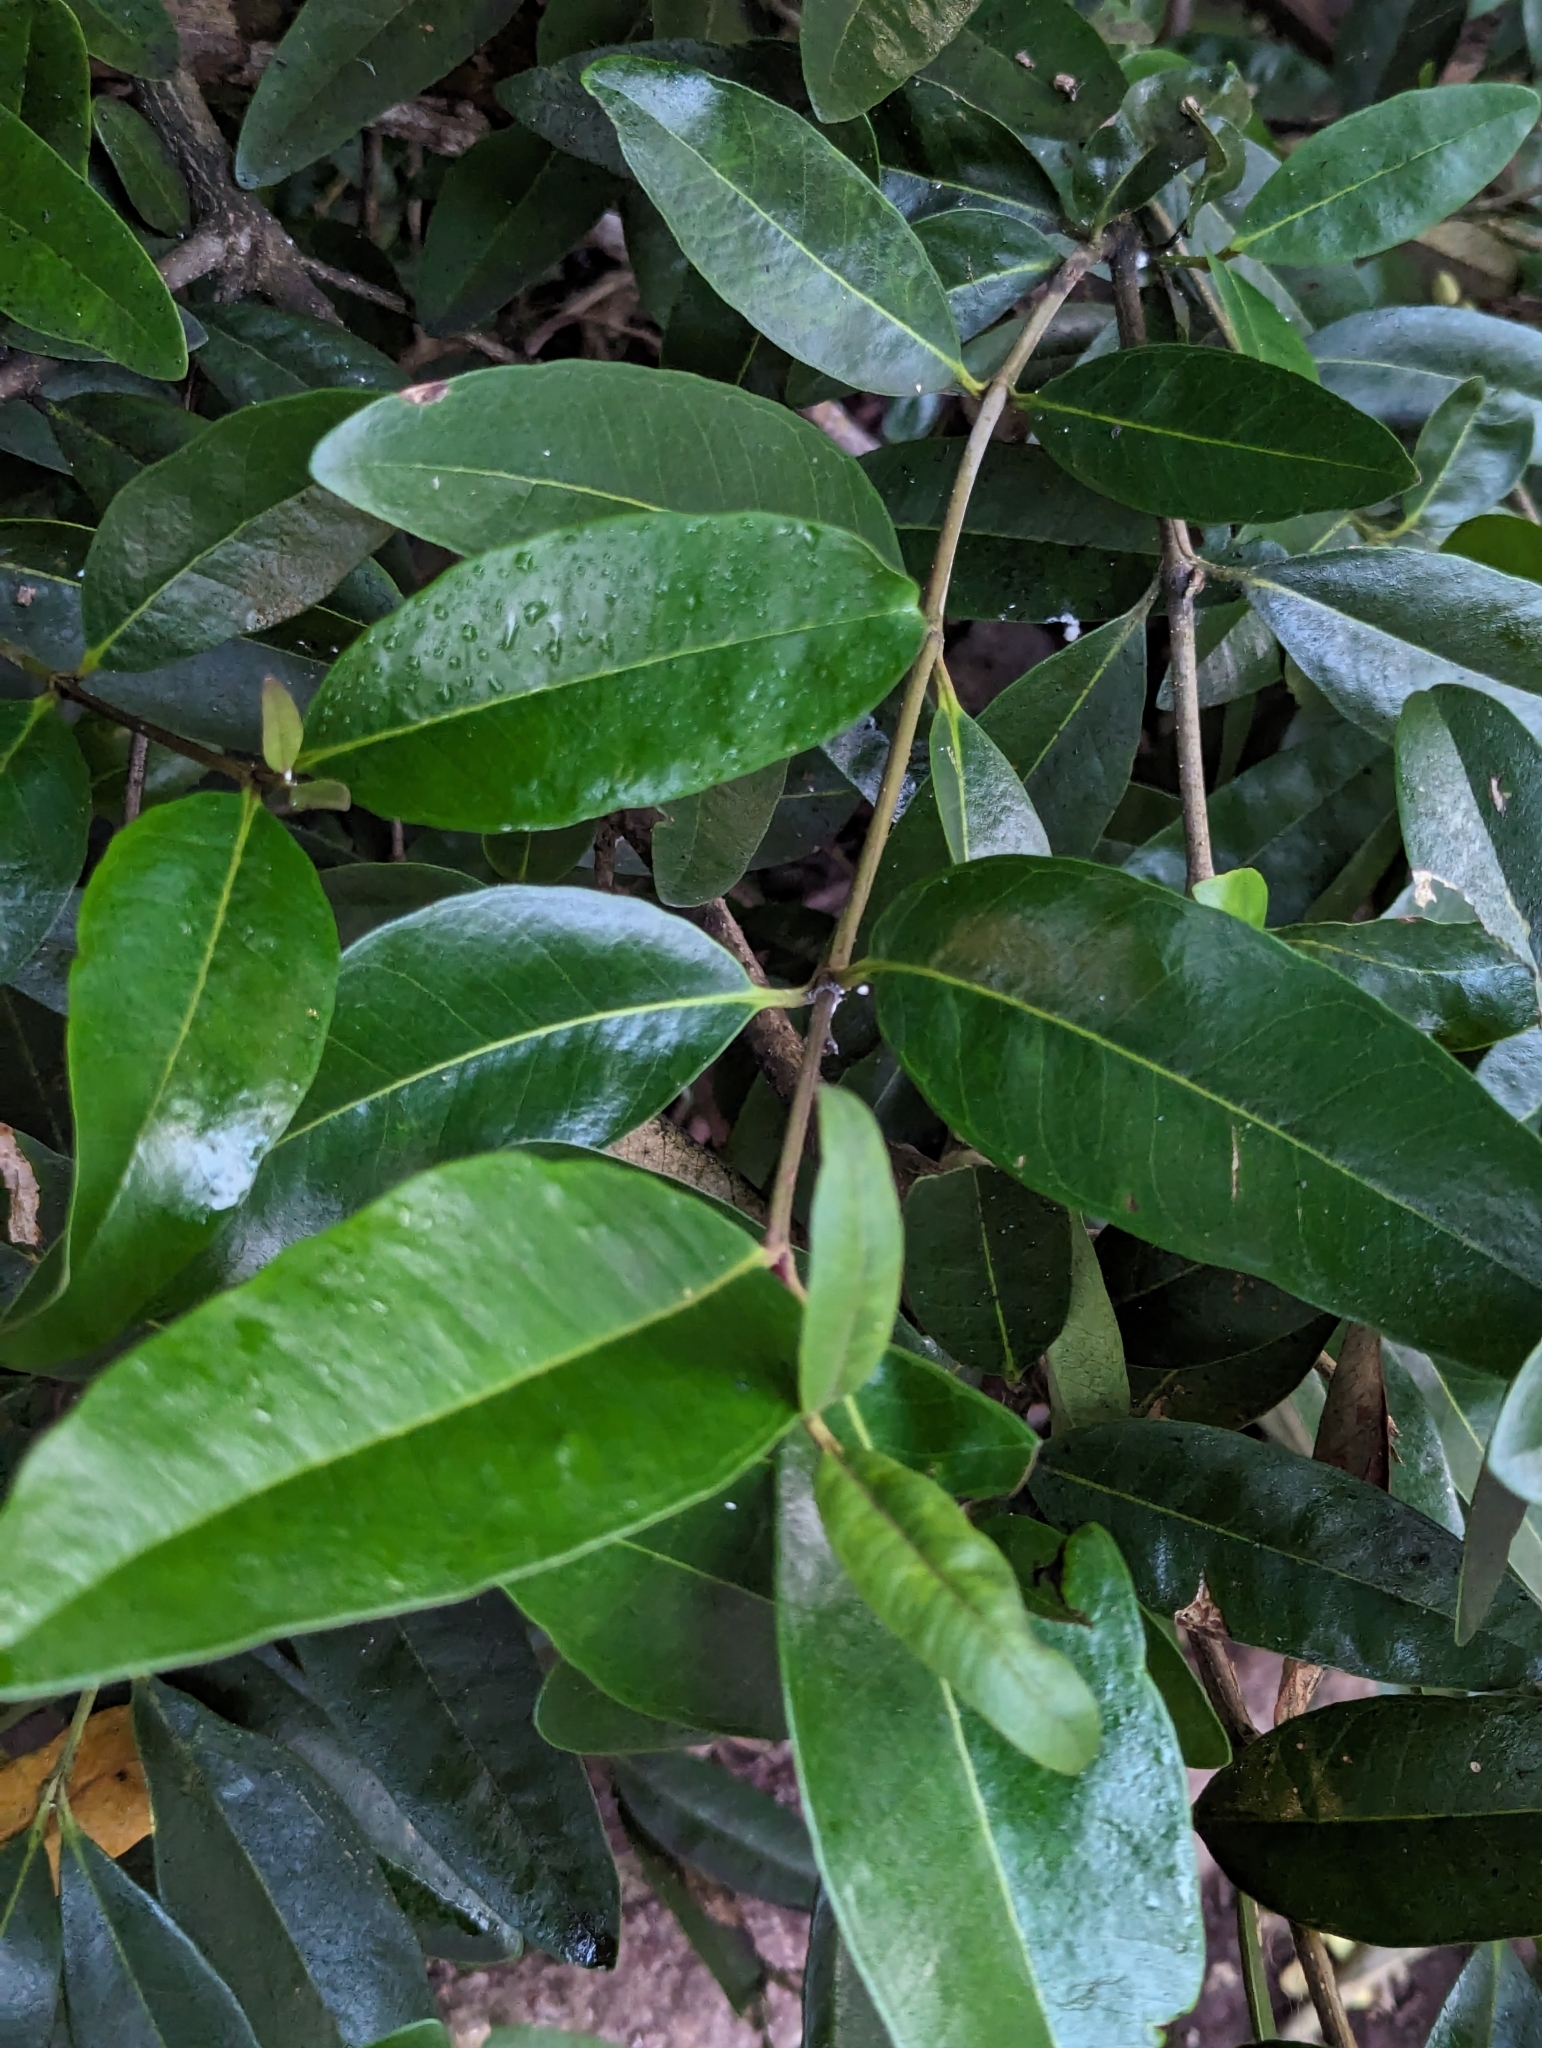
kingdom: Plantae
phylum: Tracheophyta
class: Magnoliopsida
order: Lamiales
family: Acanthaceae
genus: Avicennia
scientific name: Avicennia germinans
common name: Black mangrove
